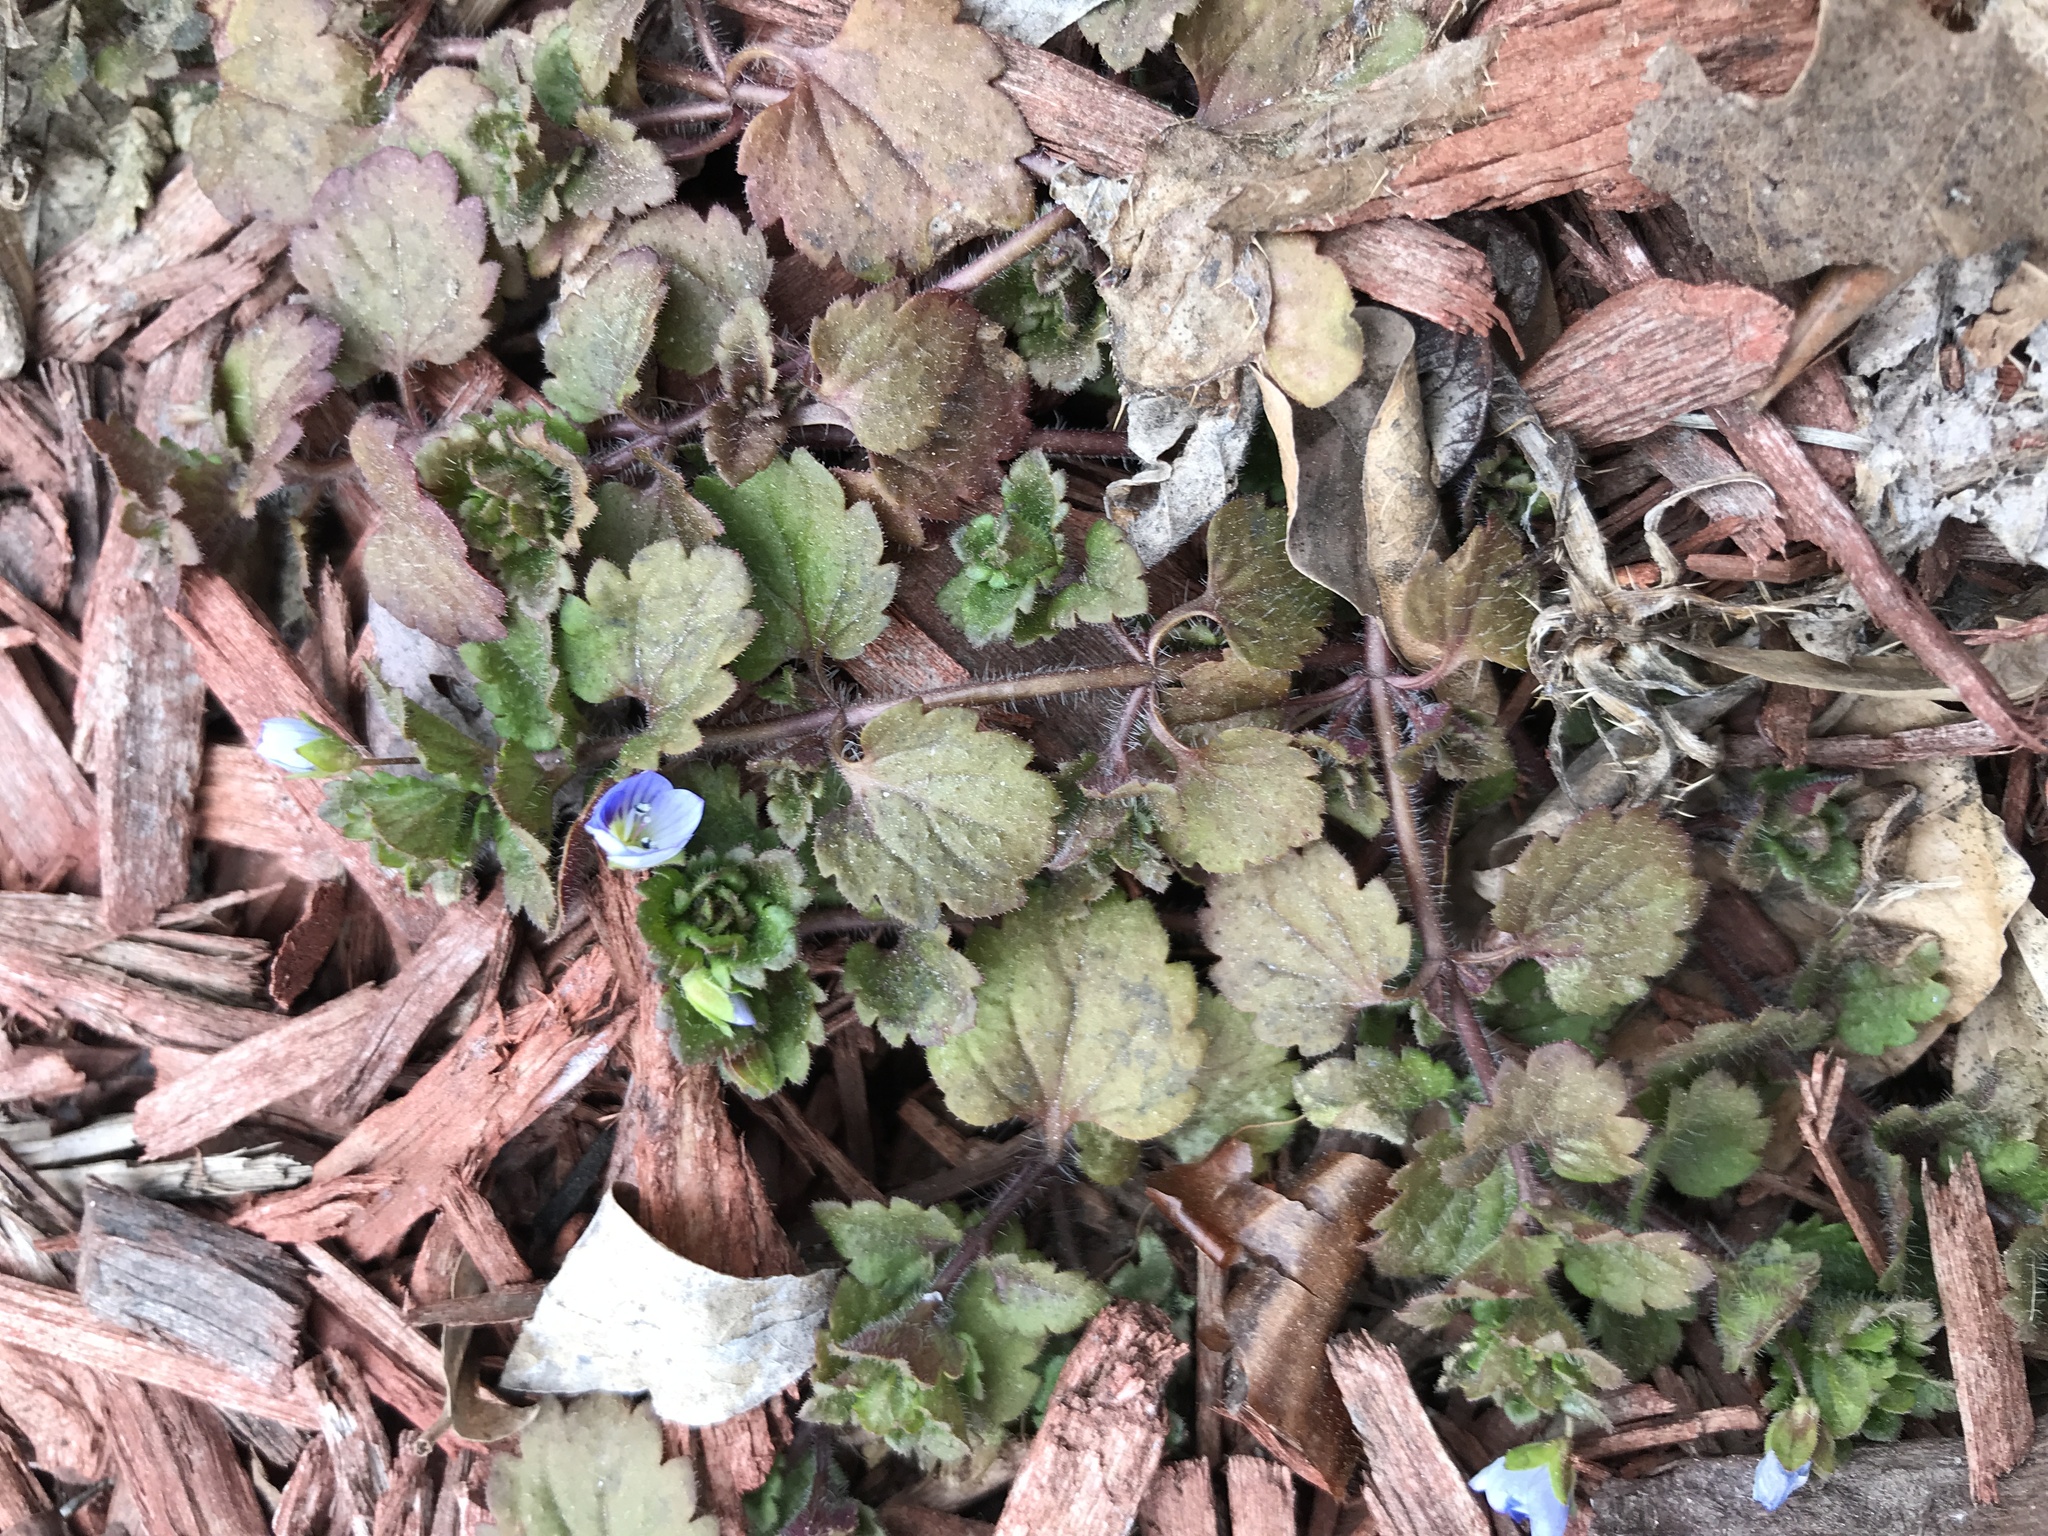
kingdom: Plantae
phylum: Tracheophyta
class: Magnoliopsida
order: Lamiales
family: Plantaginaceae
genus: Veronica
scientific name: Veronica persica
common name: Common field-speedwell
